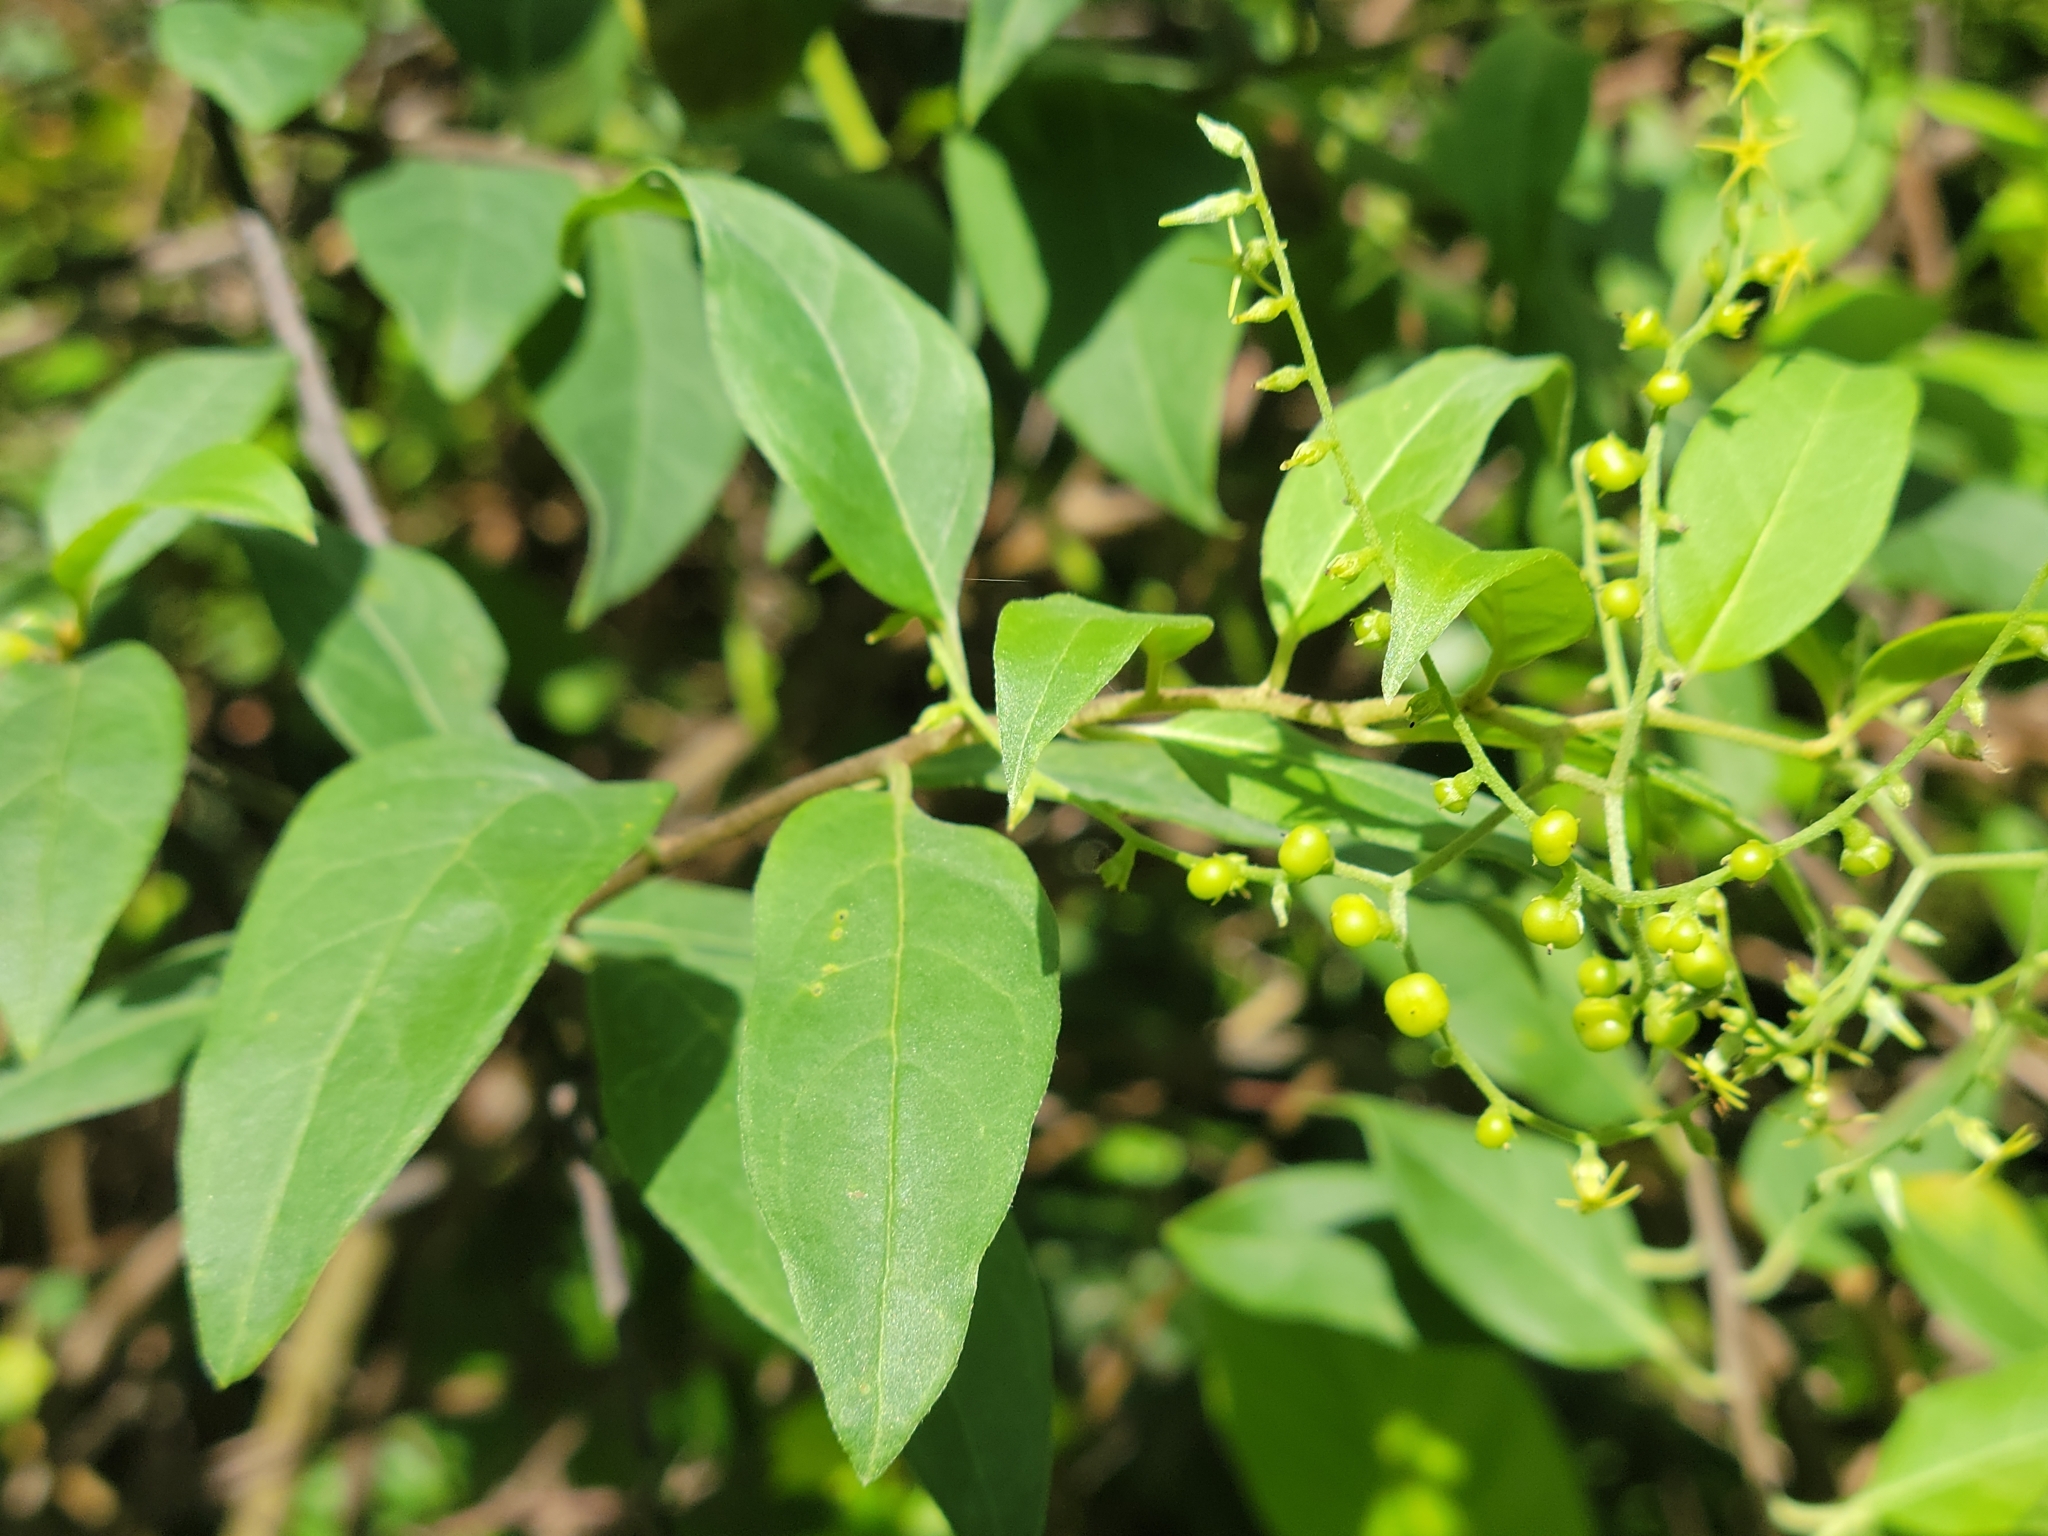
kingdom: Plantae
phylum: Tracheophyta
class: Magnoliopsida
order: Boraginales
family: Heliotropiaceae
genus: Myriopus
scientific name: Myriopus volubilis
